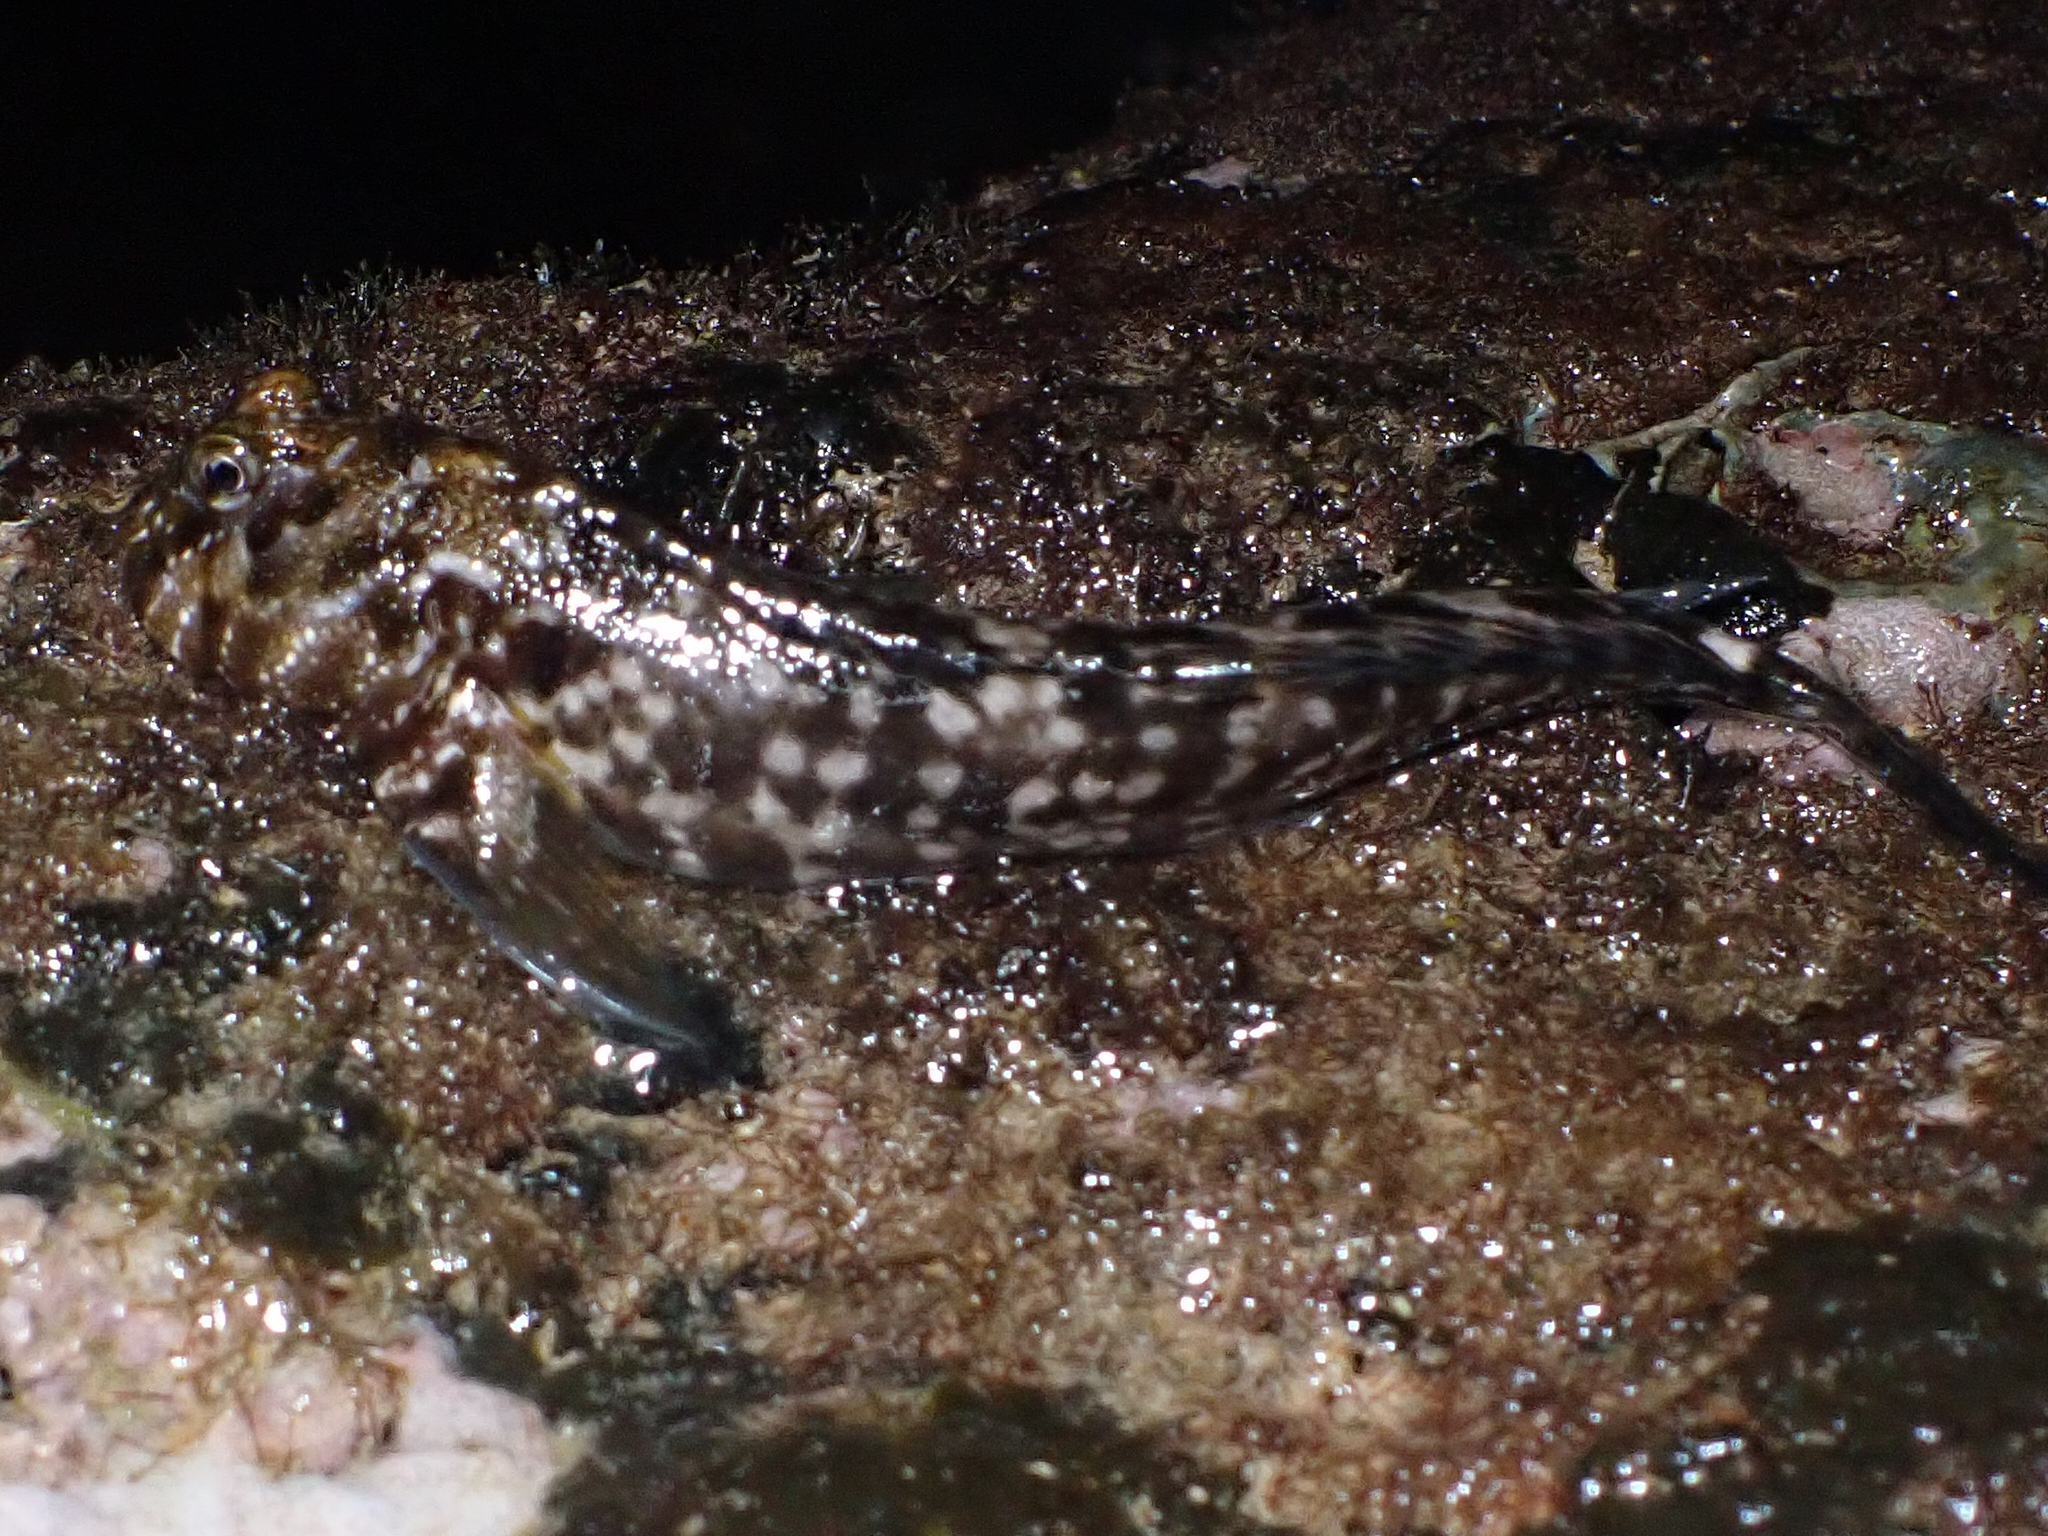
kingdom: Animalia
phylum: Chordata
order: Perciformes
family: Blenniidae
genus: Entomacrodus
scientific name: Entomacrodus marmoratus
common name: Marbled blenny
